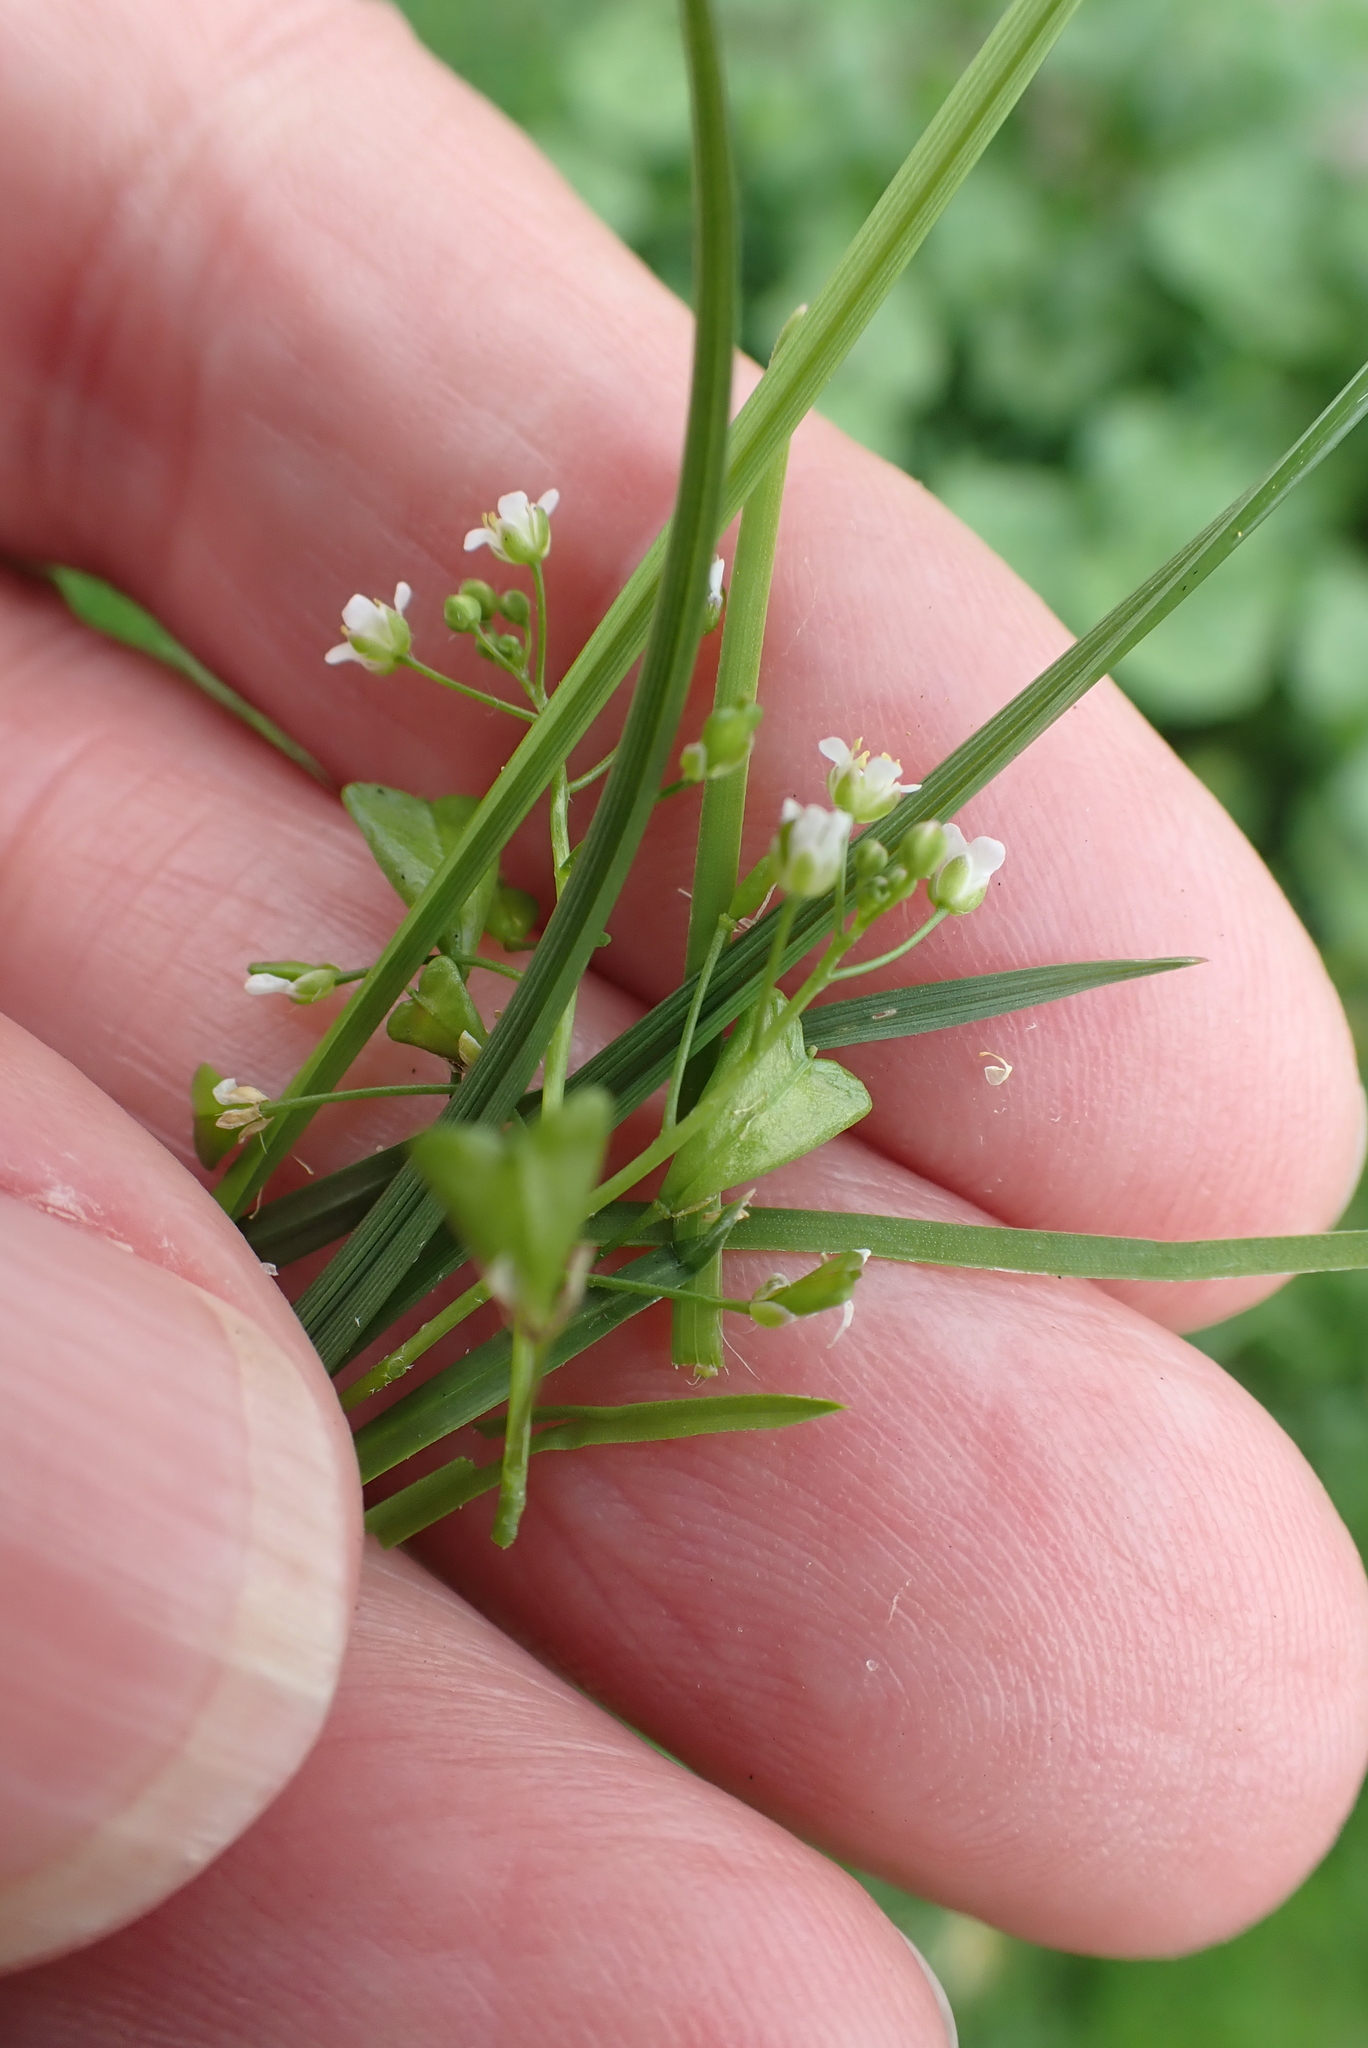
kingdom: Plantae
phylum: Tracheophyta
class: Magnoliopsida
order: Brassicales
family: Brassicaceae
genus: Capsella
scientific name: Capsella bursa-pastoris
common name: Shepherd's purse
